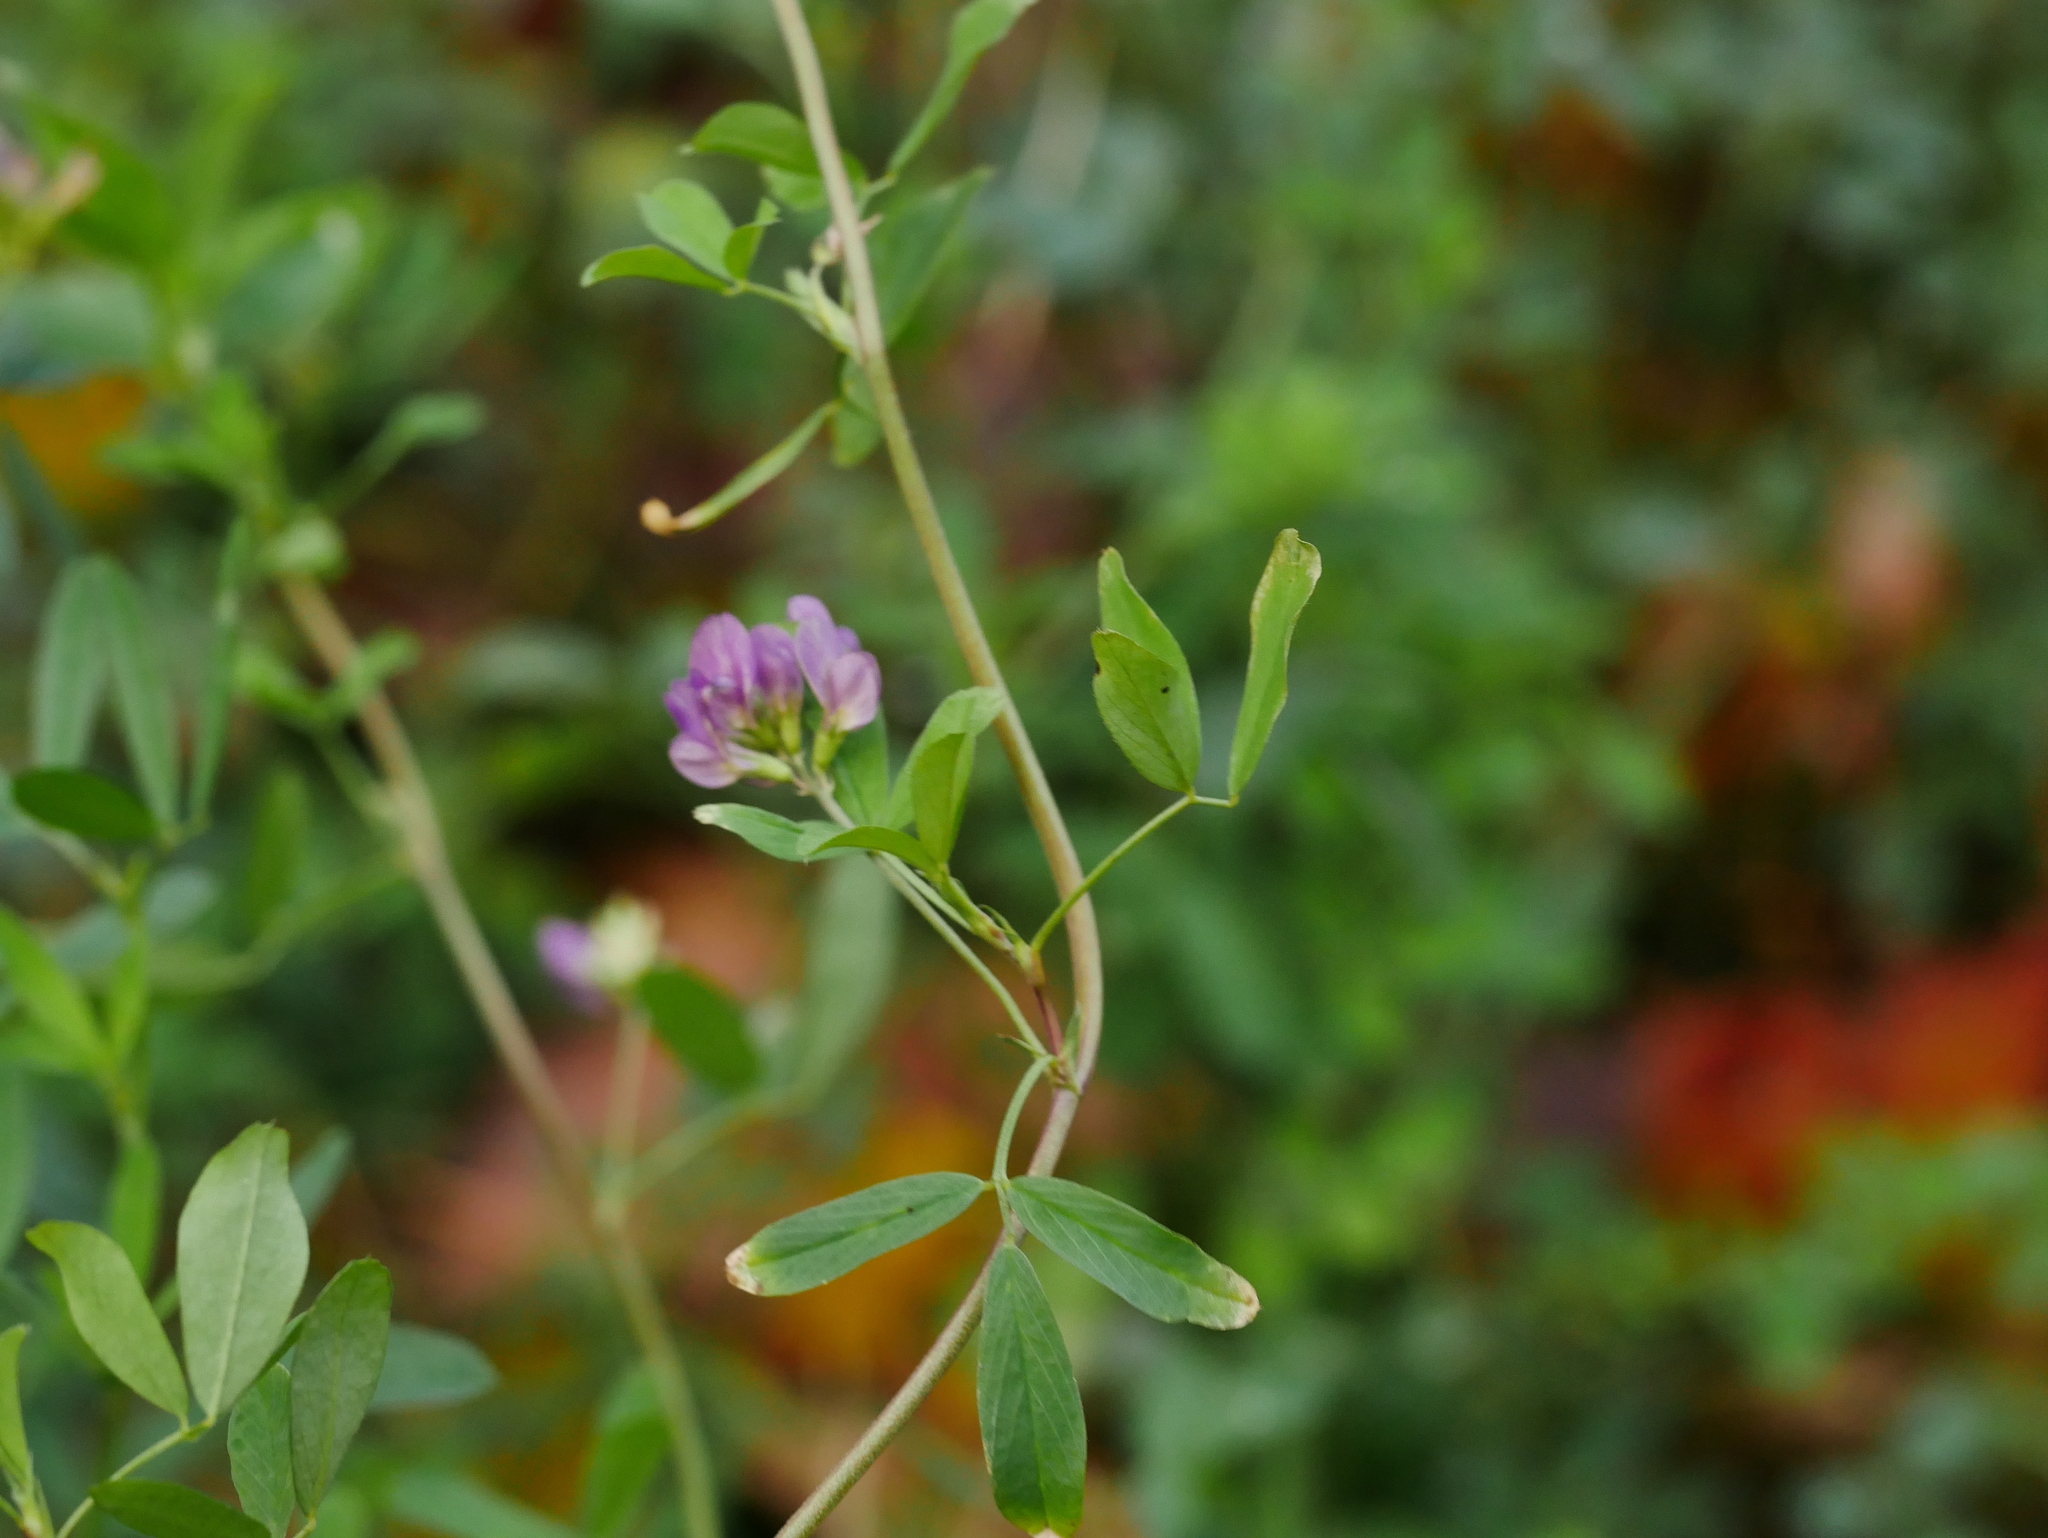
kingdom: Plantae
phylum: Tracheophyta
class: Magnoliopsida
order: Fabales
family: Fabaceae
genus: Medicago
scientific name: Medicago varia
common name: Sand lucerne
